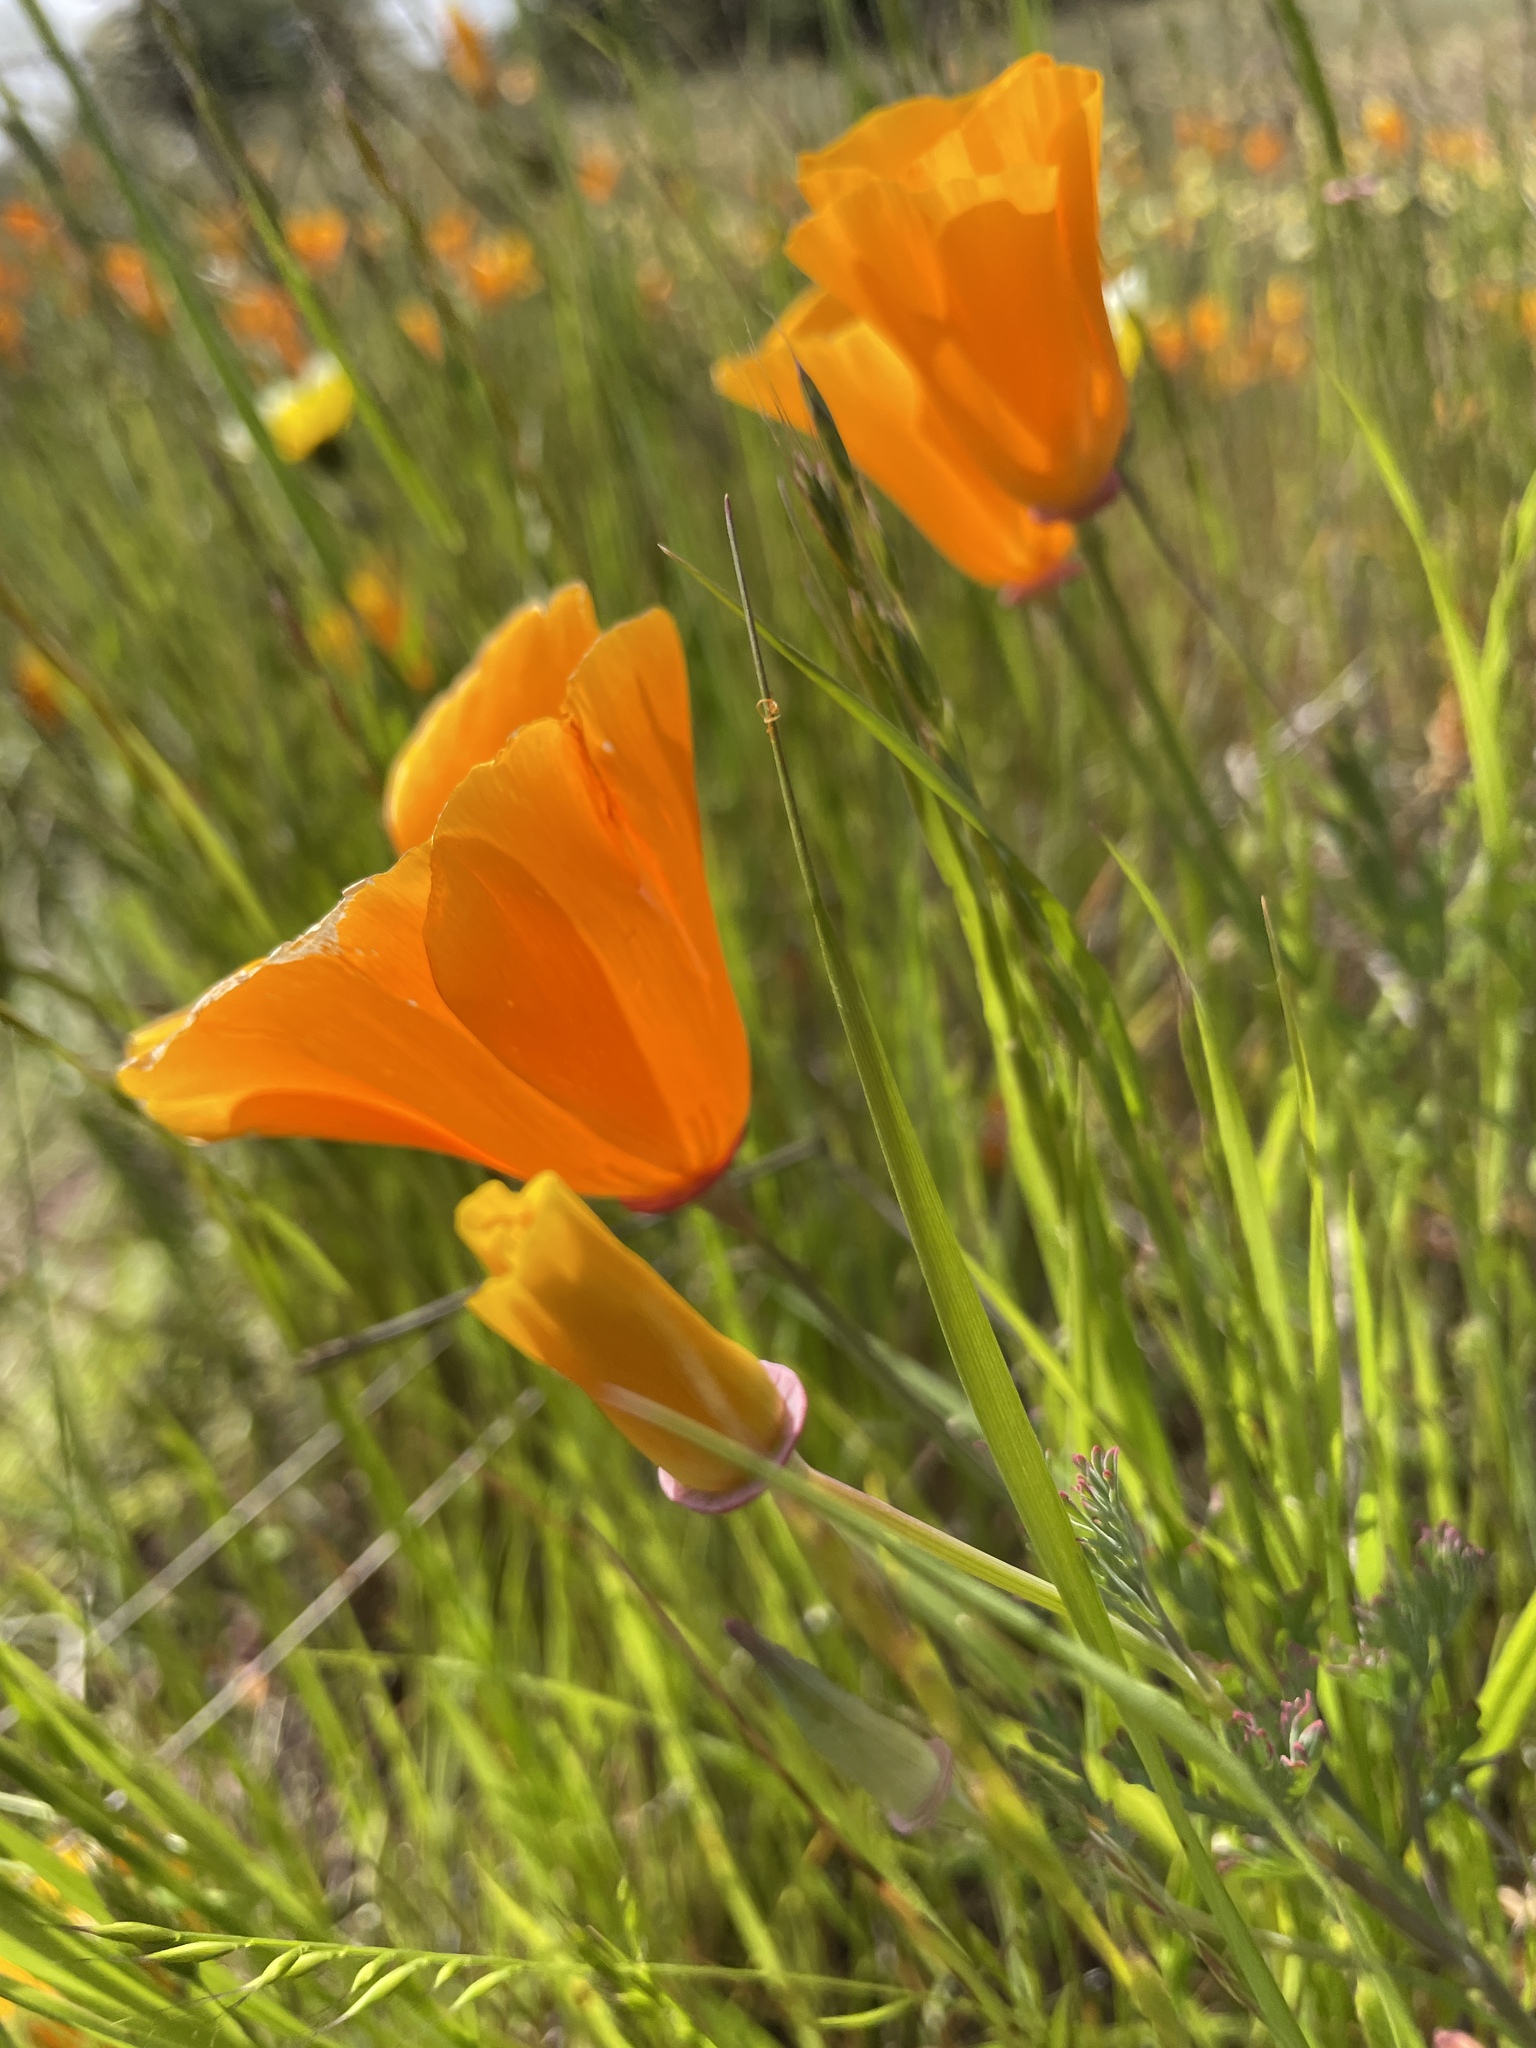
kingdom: Plantae
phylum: Tracheophyta
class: Magnoliopsida
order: Ranunculales
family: Papaveraceae
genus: Eschscholzia
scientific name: Eschscholzia californica
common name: California poppy
